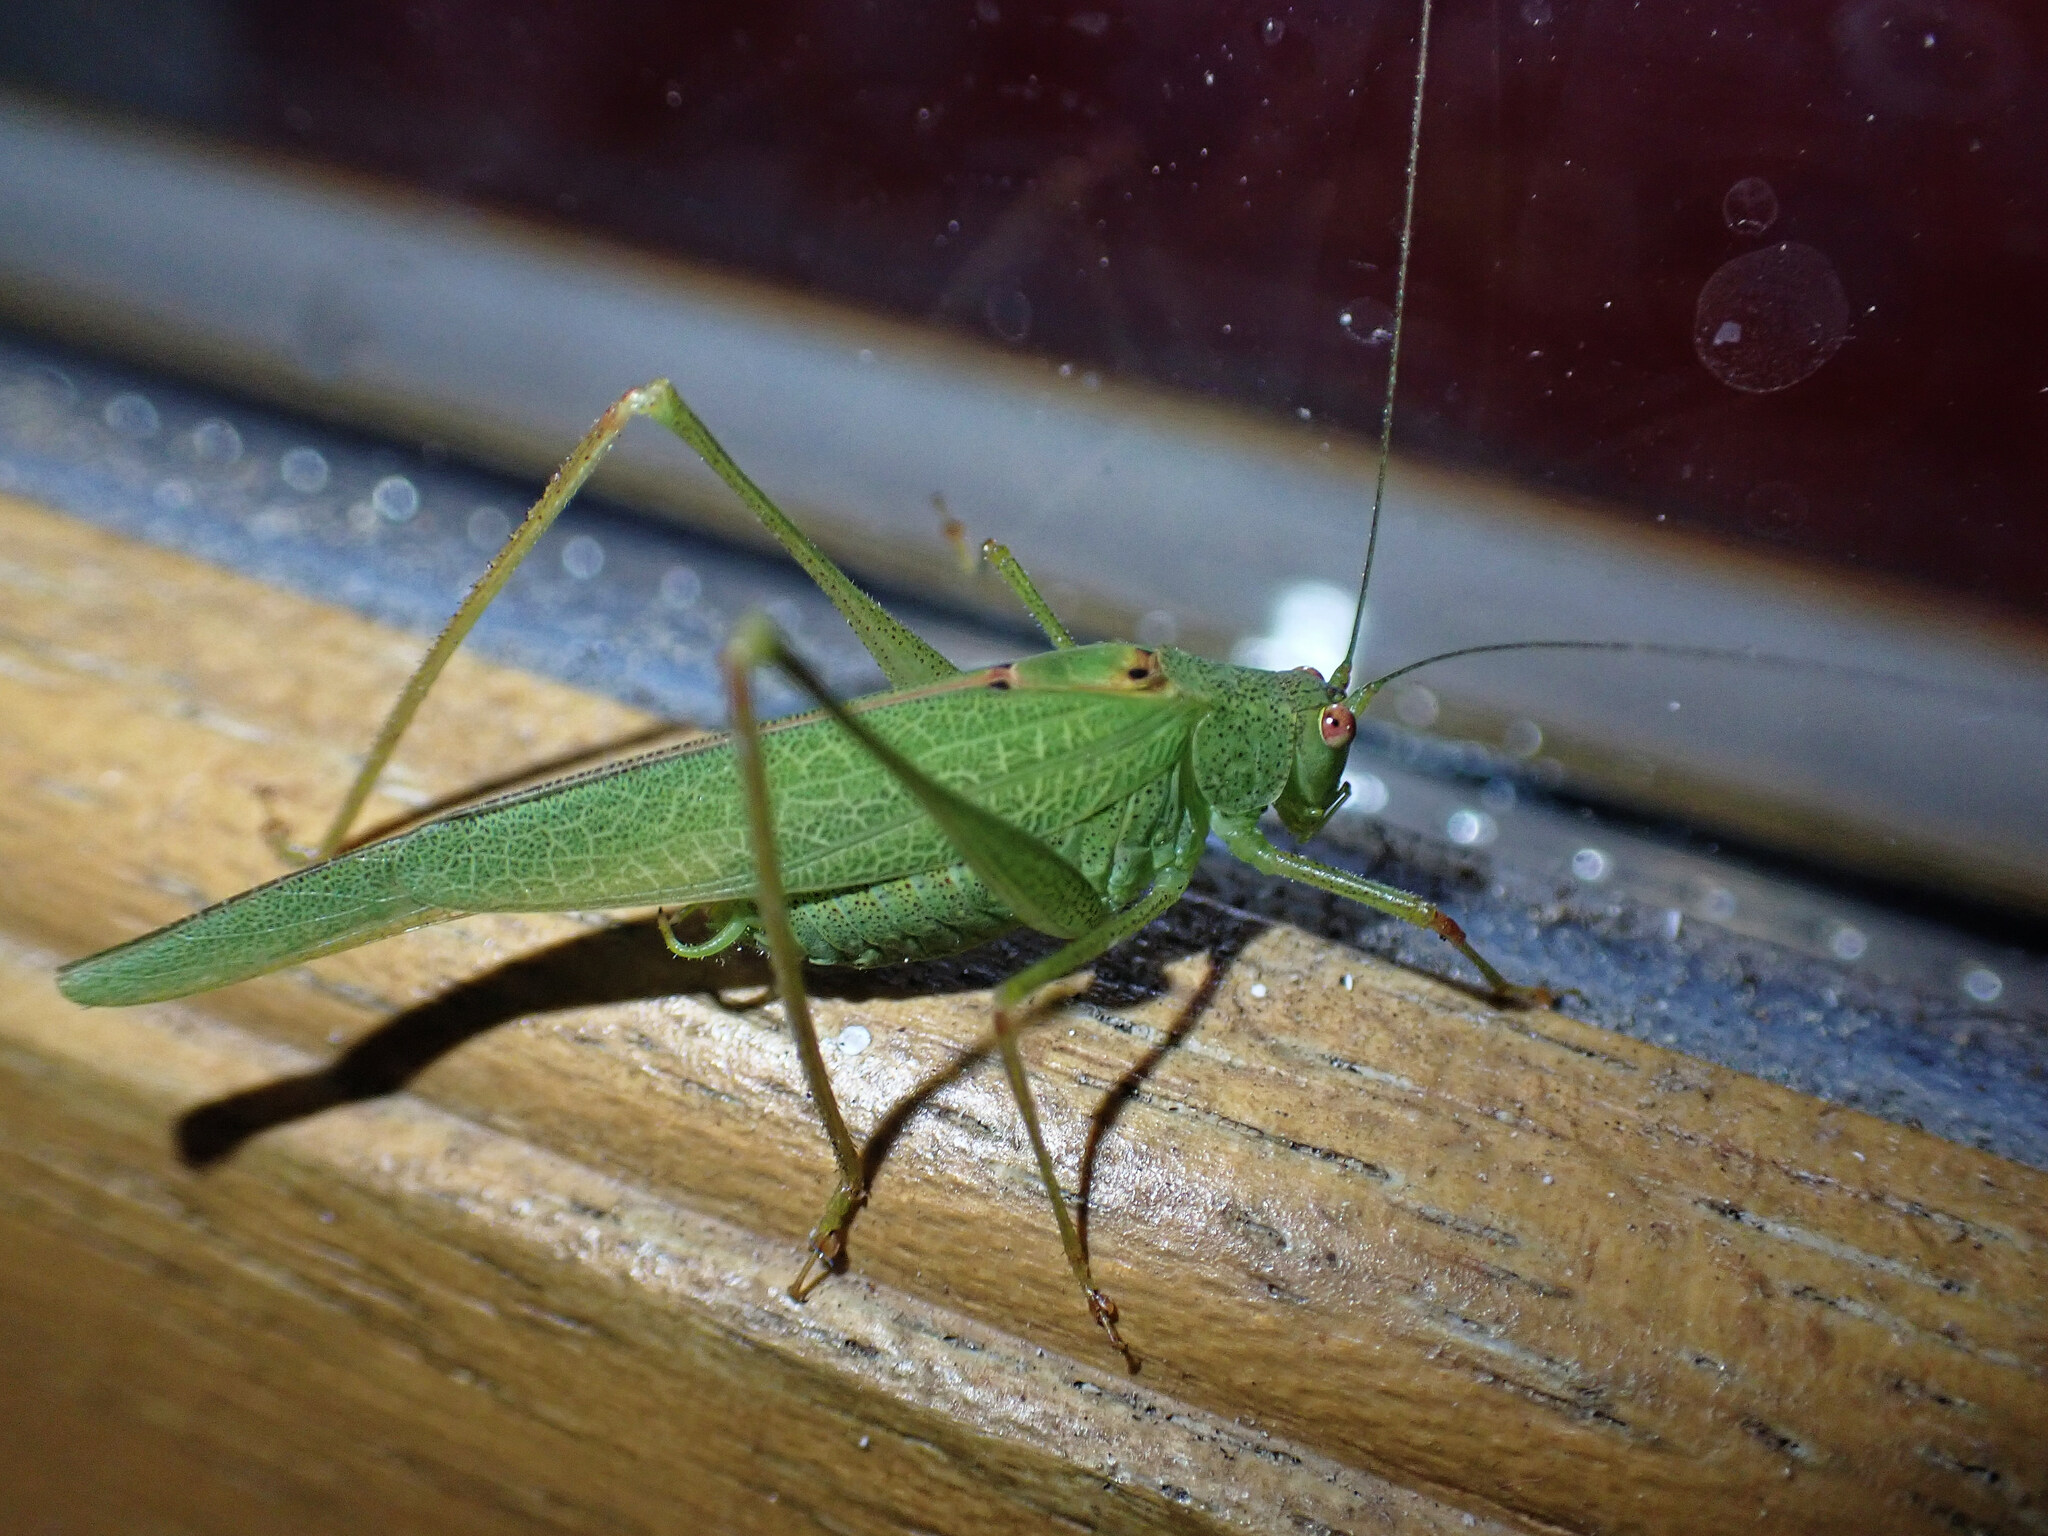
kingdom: Animalia
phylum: Arthropoda
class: Insecta
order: Orthoptera
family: Tettigoniidae
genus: Phaneroptera
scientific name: Phaneroptera nana
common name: Southern sickle bush-cricket
